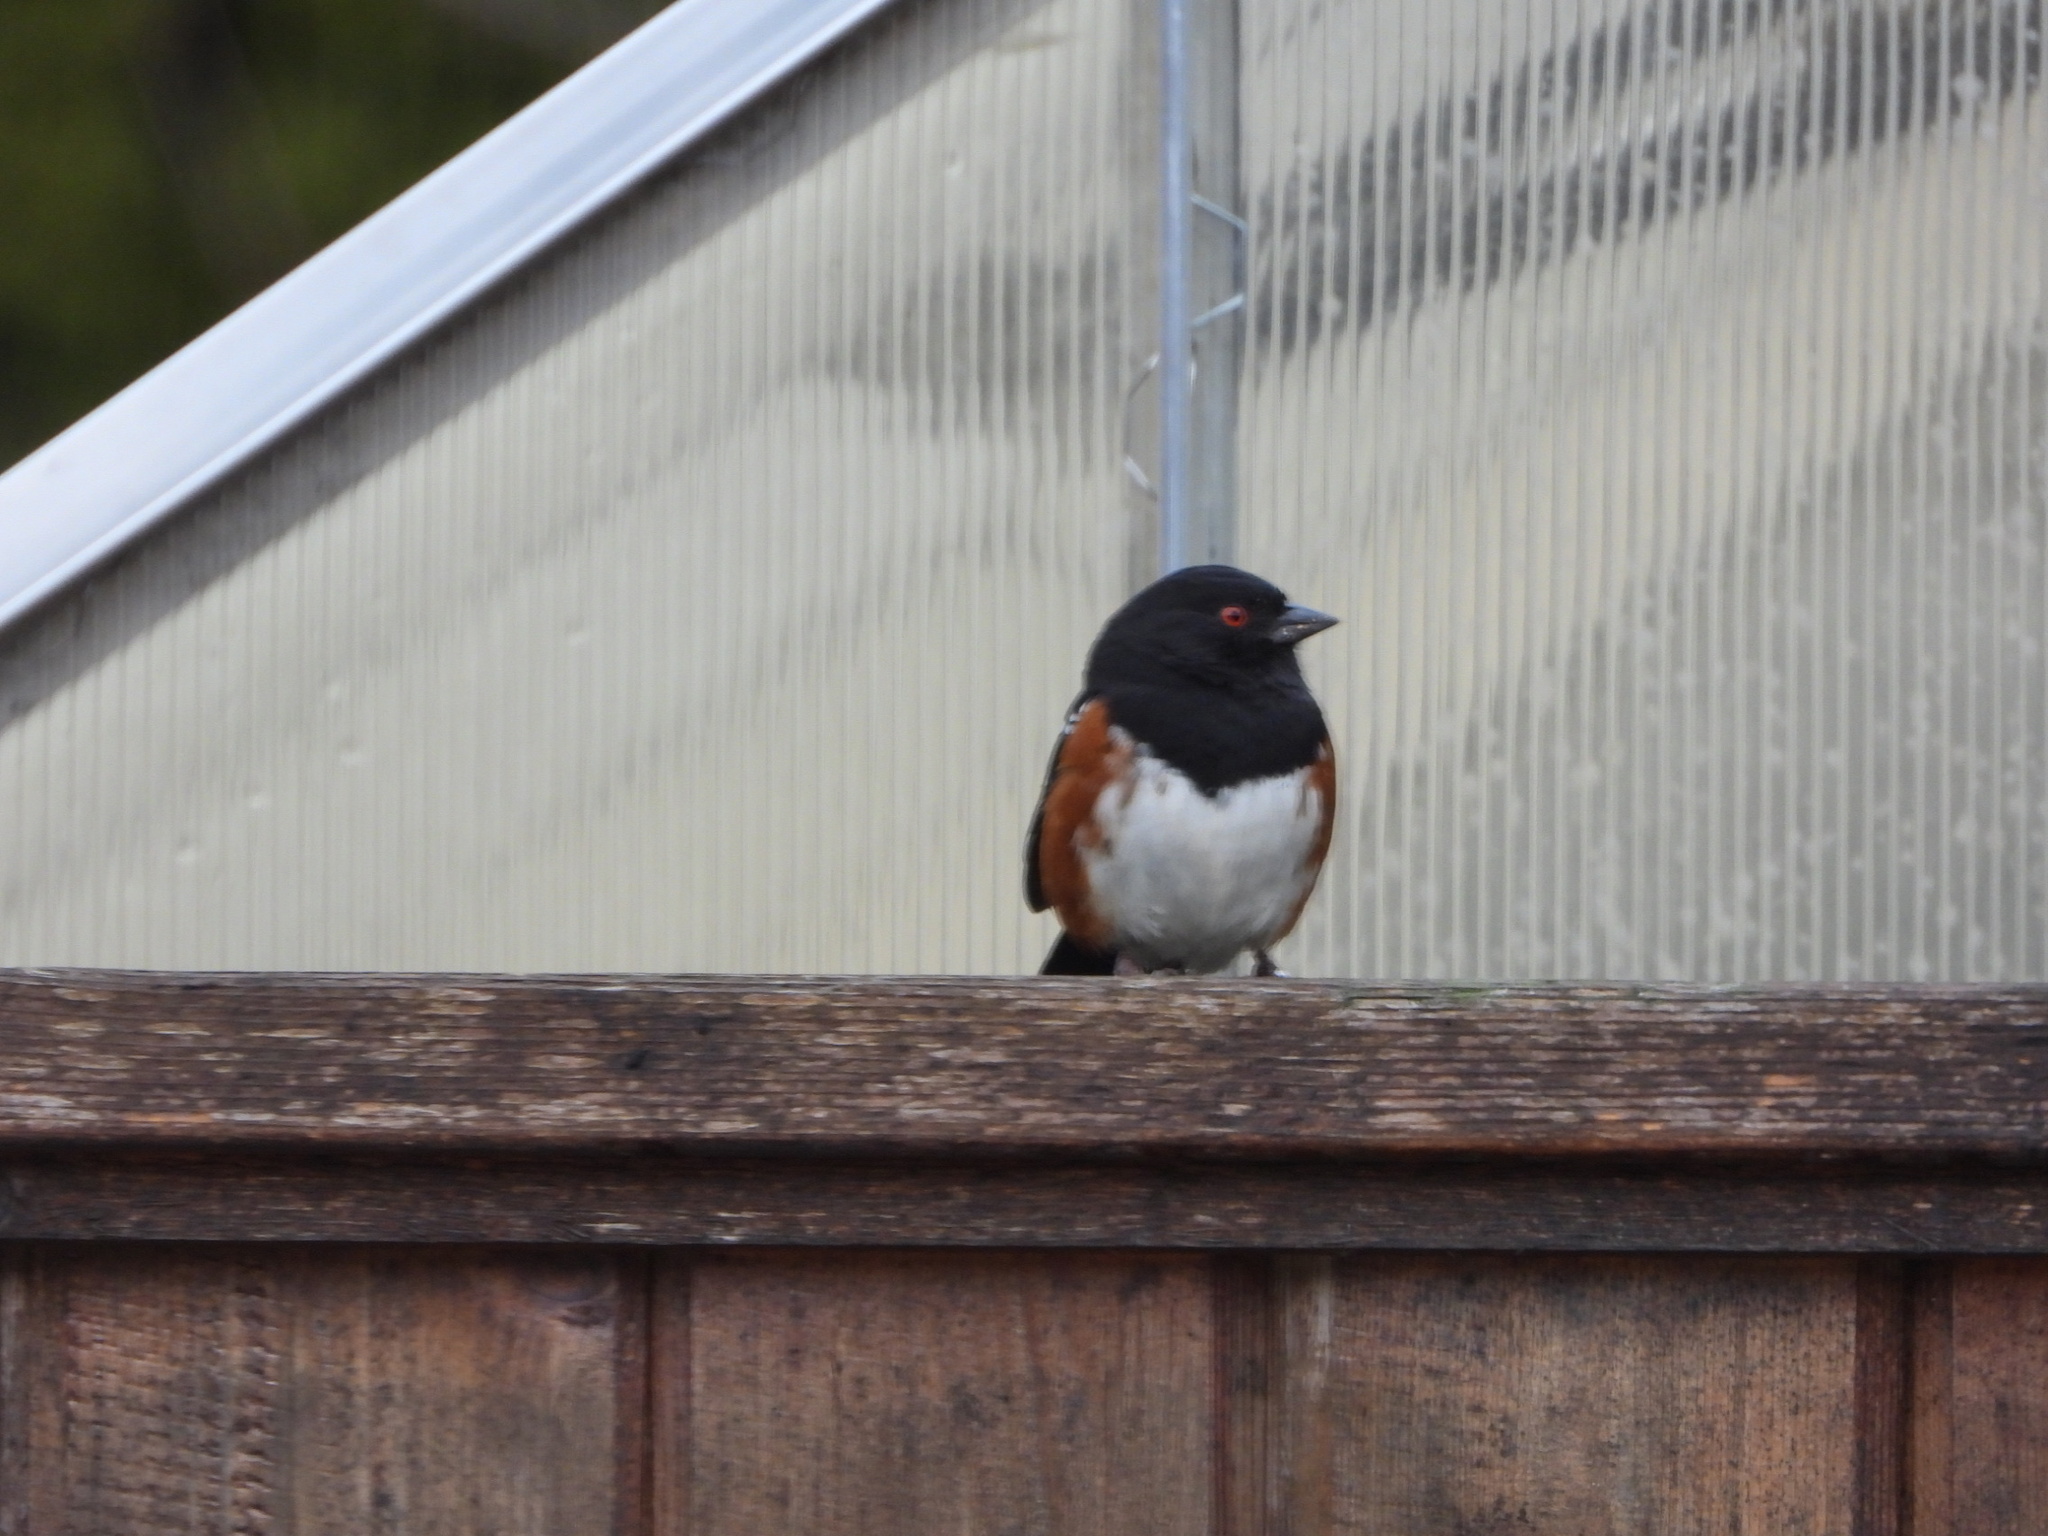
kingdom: Animalia
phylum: Chordata
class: Aves
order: Passeriformes
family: Passerellidae
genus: Pipilo
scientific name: Pipilo maculatus
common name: Spotted towhee
